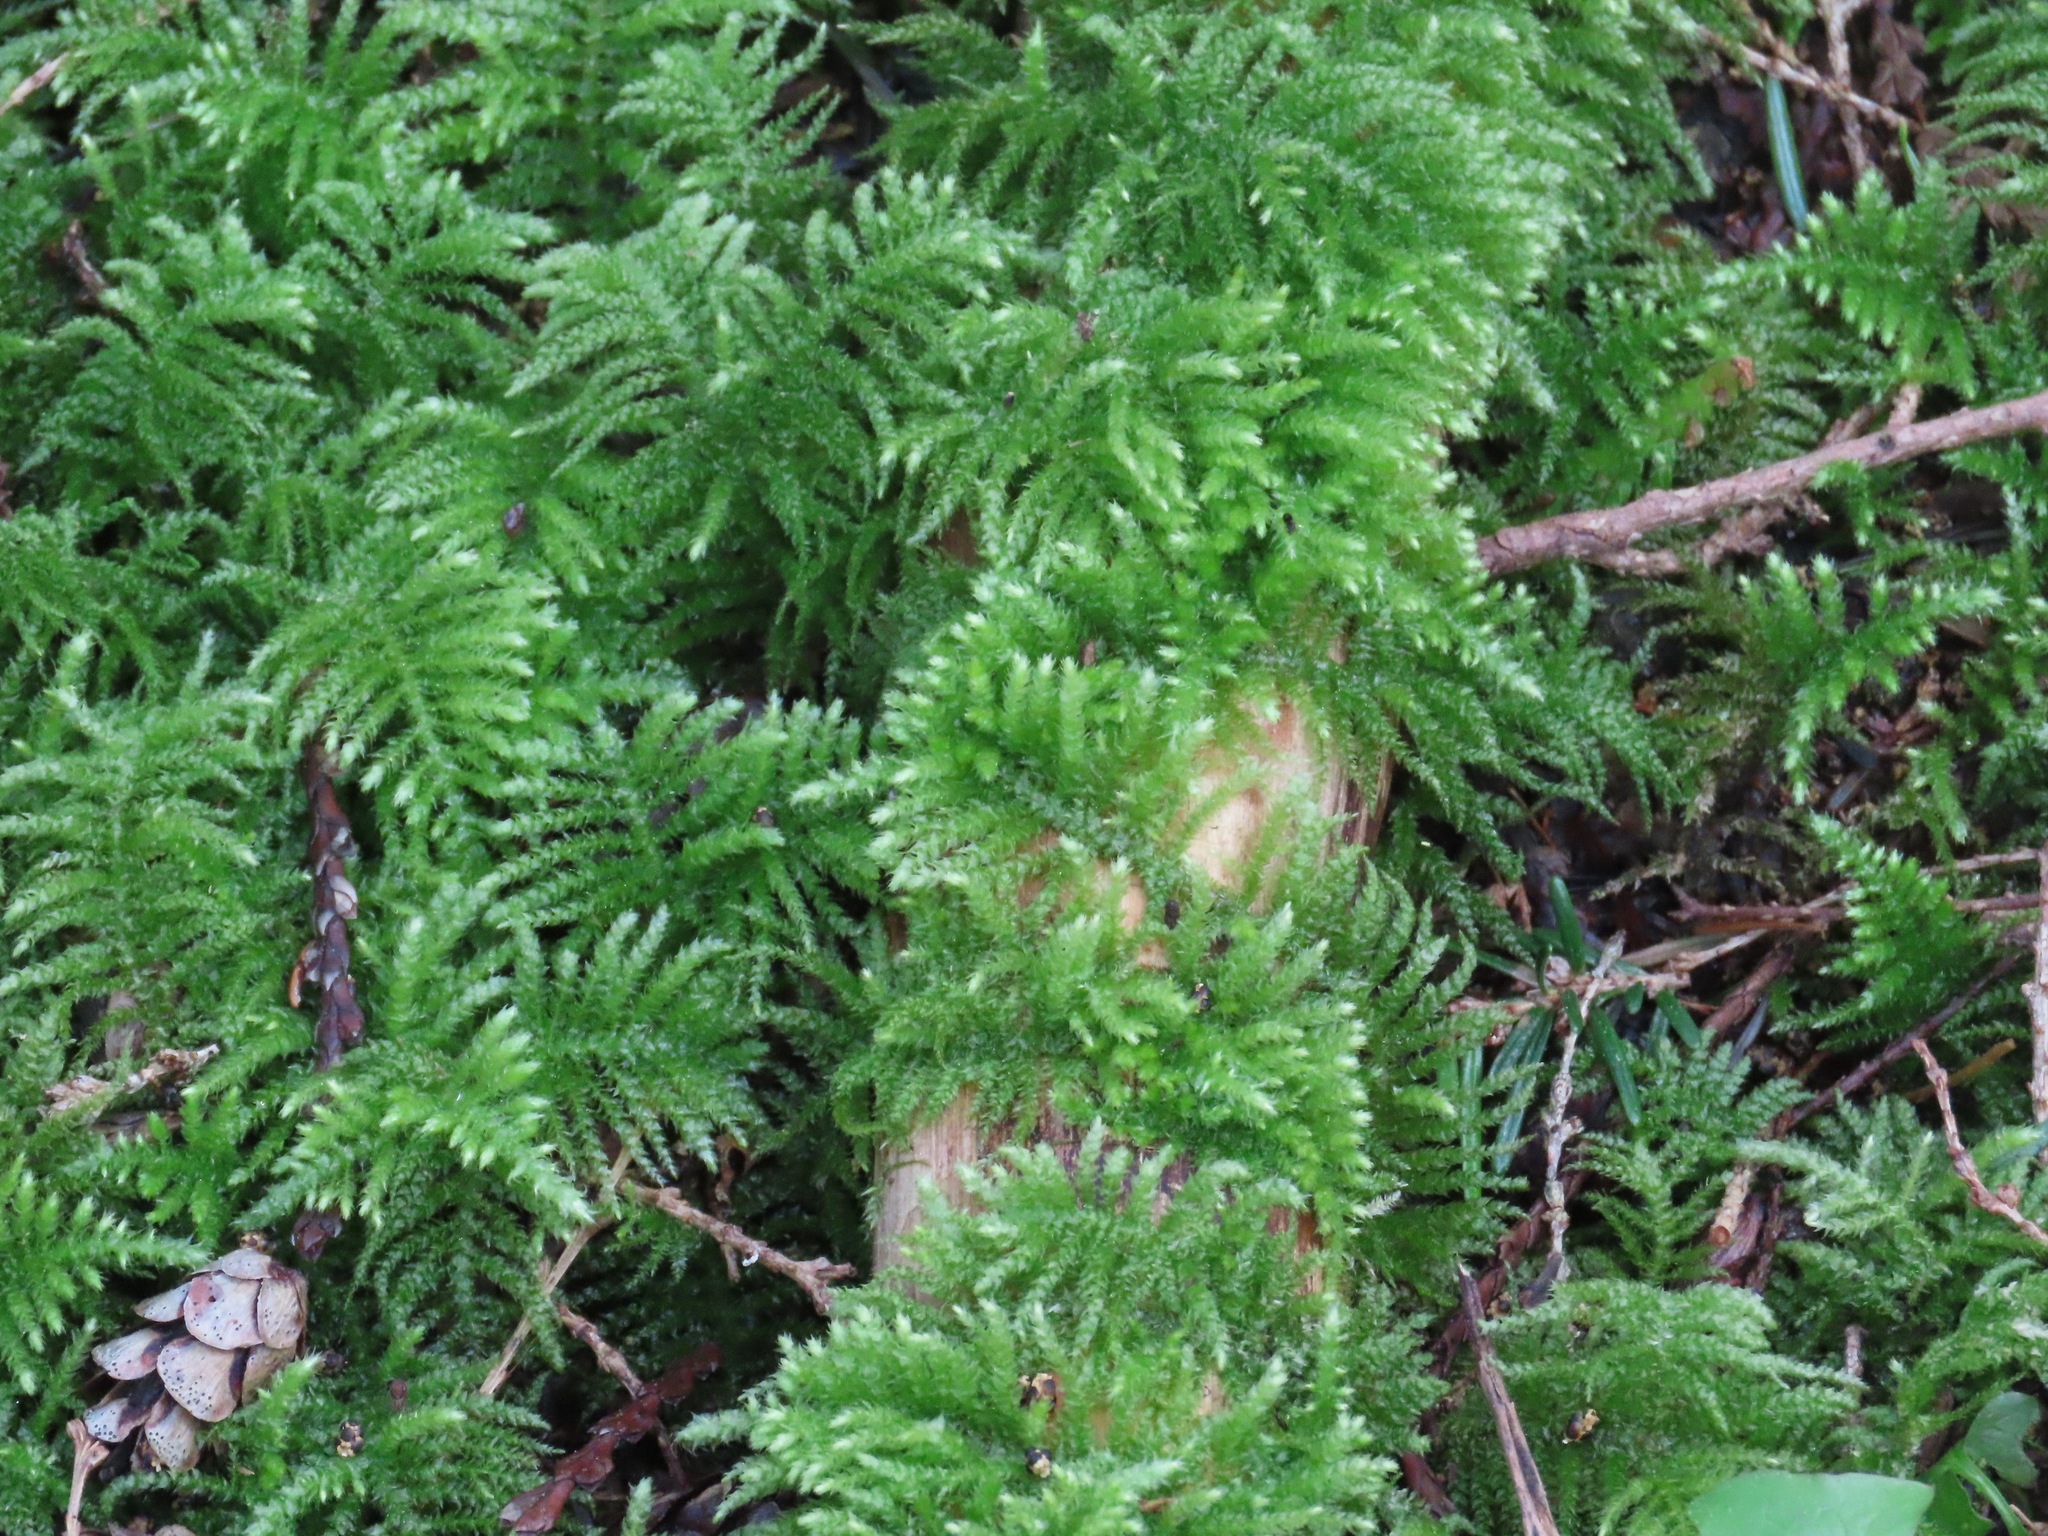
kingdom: Plantae
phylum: Bryophyta
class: Bryopsida
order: Hypnales
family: Brachytheciaceae
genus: Kindbergia
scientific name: Kindbergia oregana
